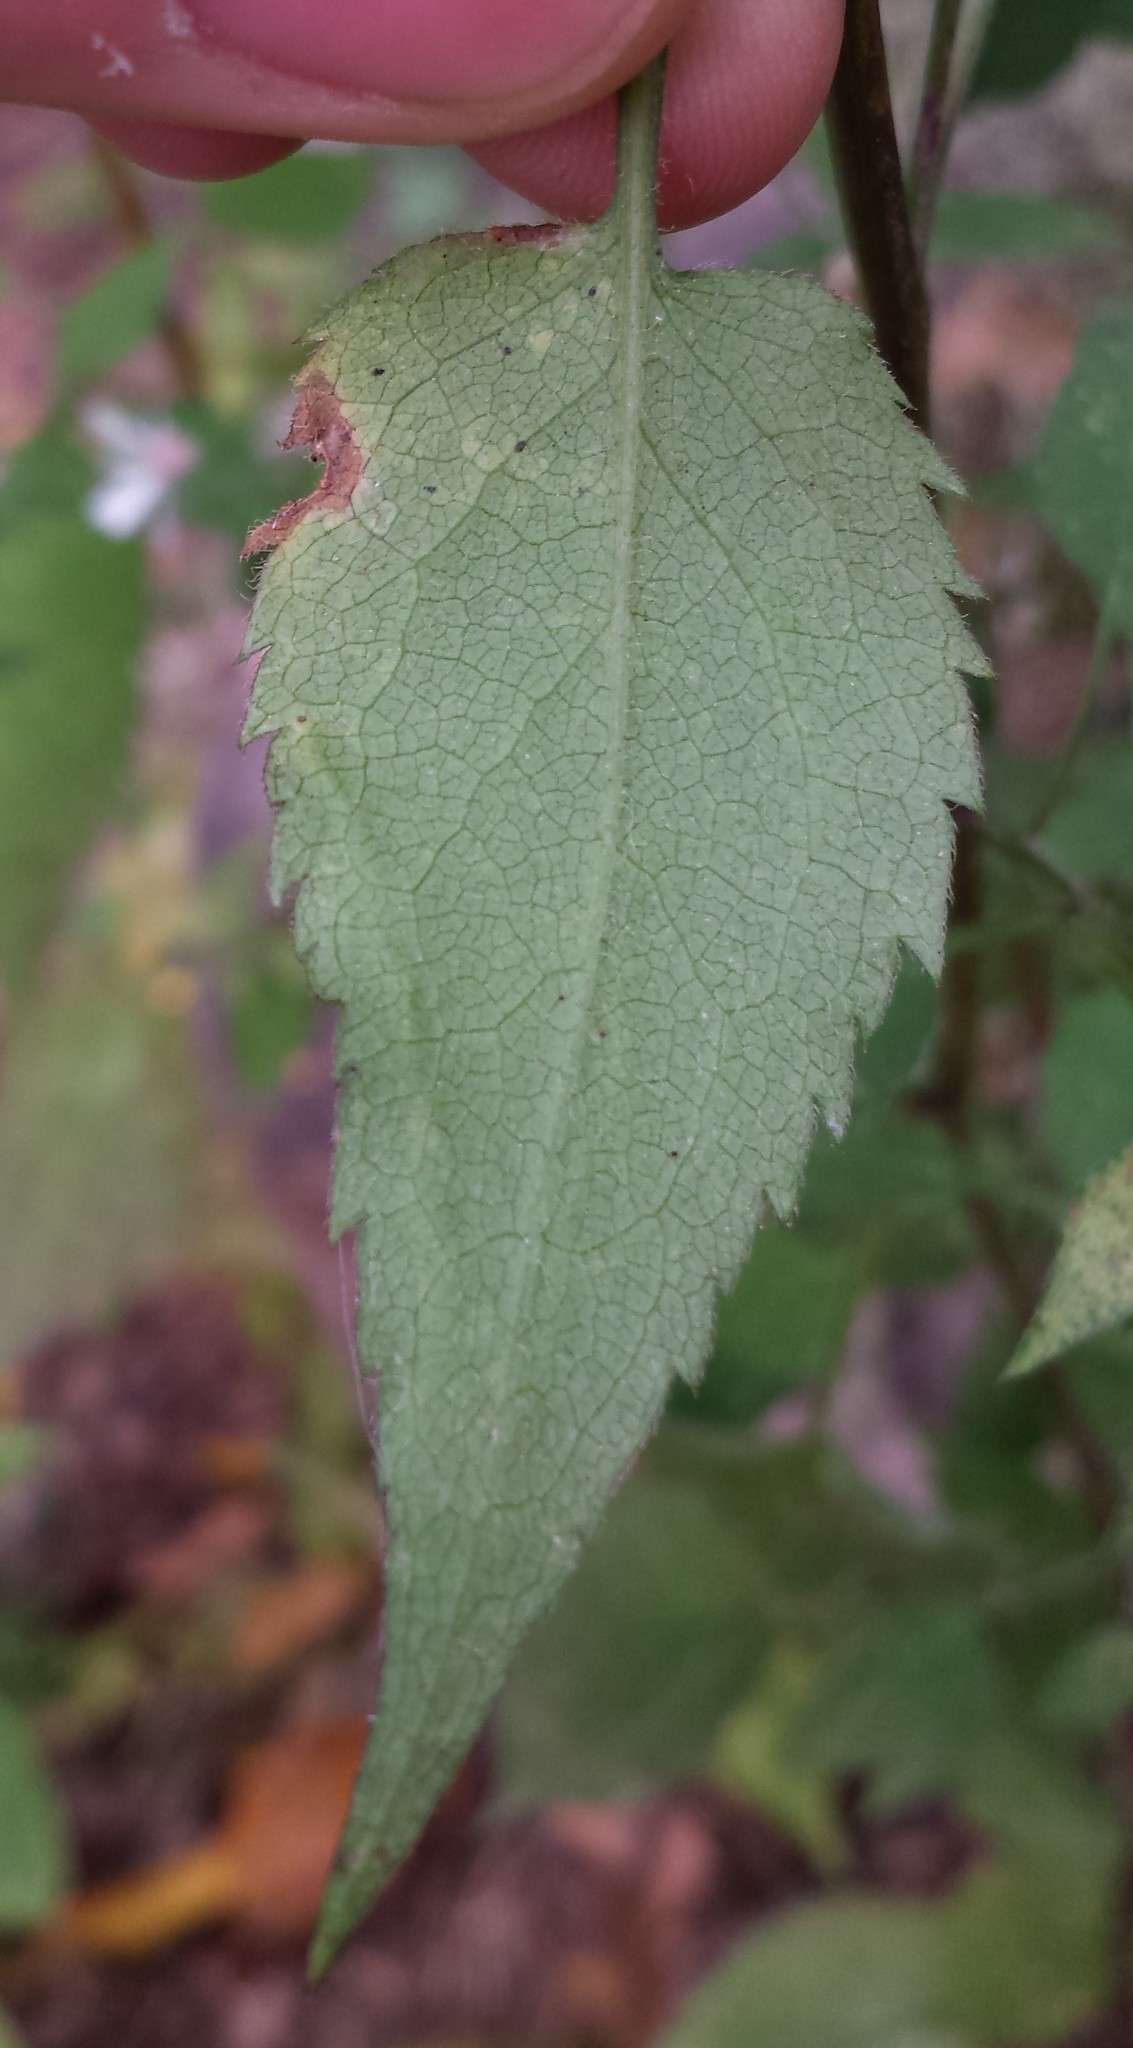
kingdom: Animalia
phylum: Arthropoda
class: Insecta
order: Diptera
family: Agromyzidae
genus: Ophiomyia
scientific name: Ophiomyia parda
